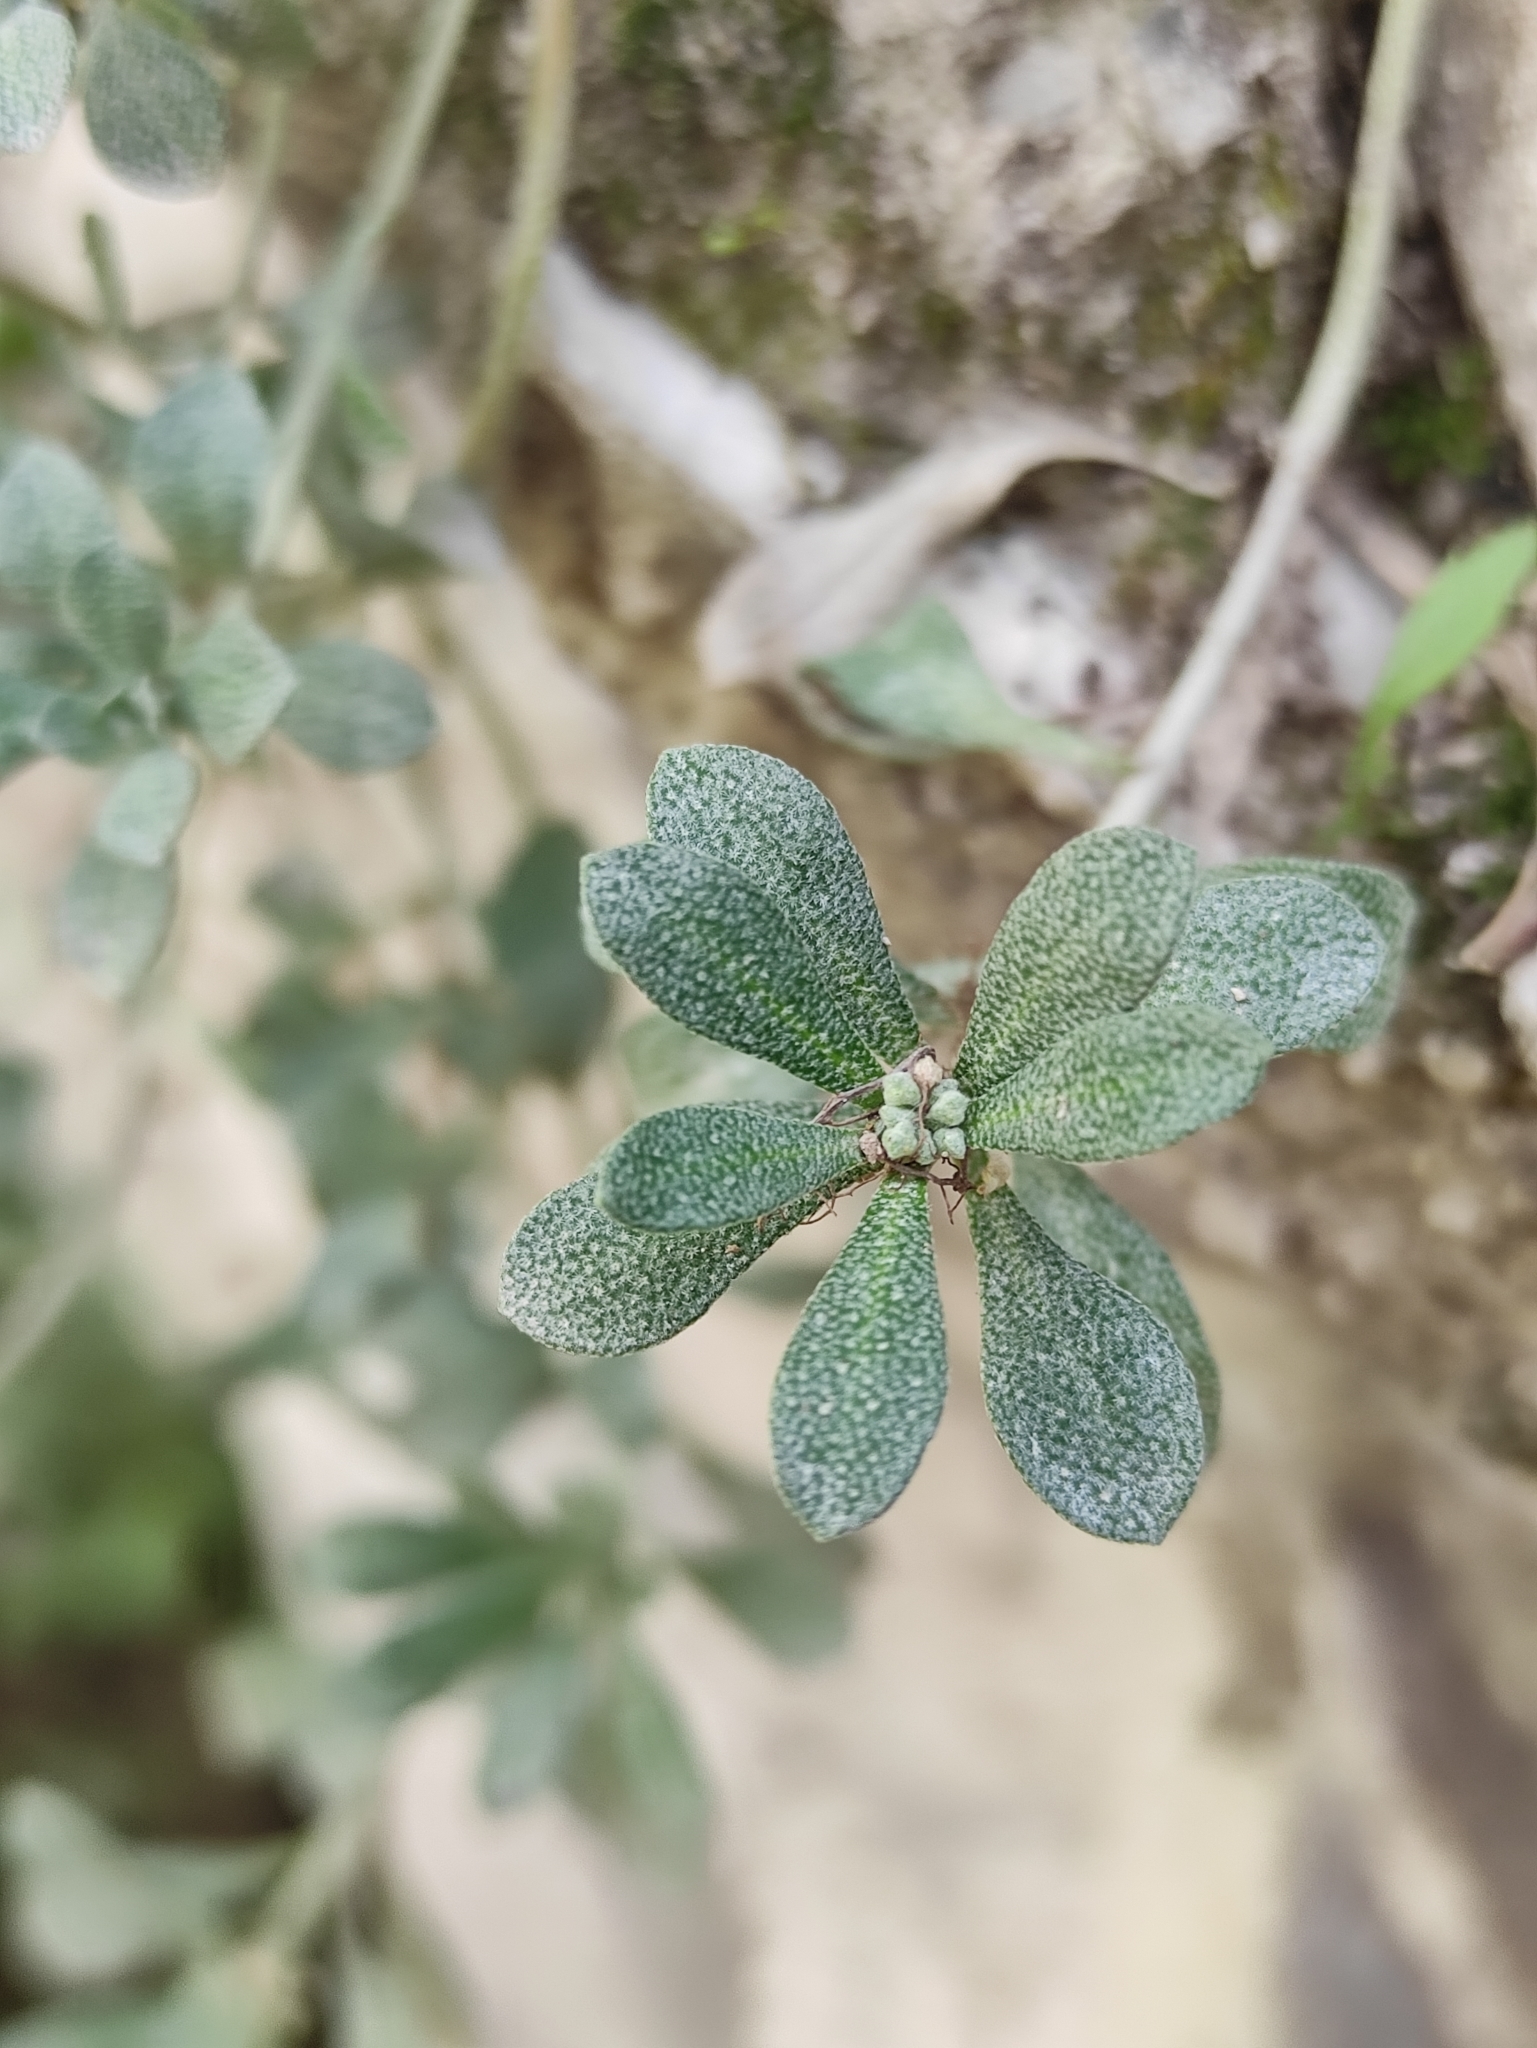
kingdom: Plantae
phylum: Tracheophyta
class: Magnoliopsida
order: Brassicales
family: Brassicaceae
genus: Odontarrhena
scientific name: Odontarrhena obovata
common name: American alyssum
